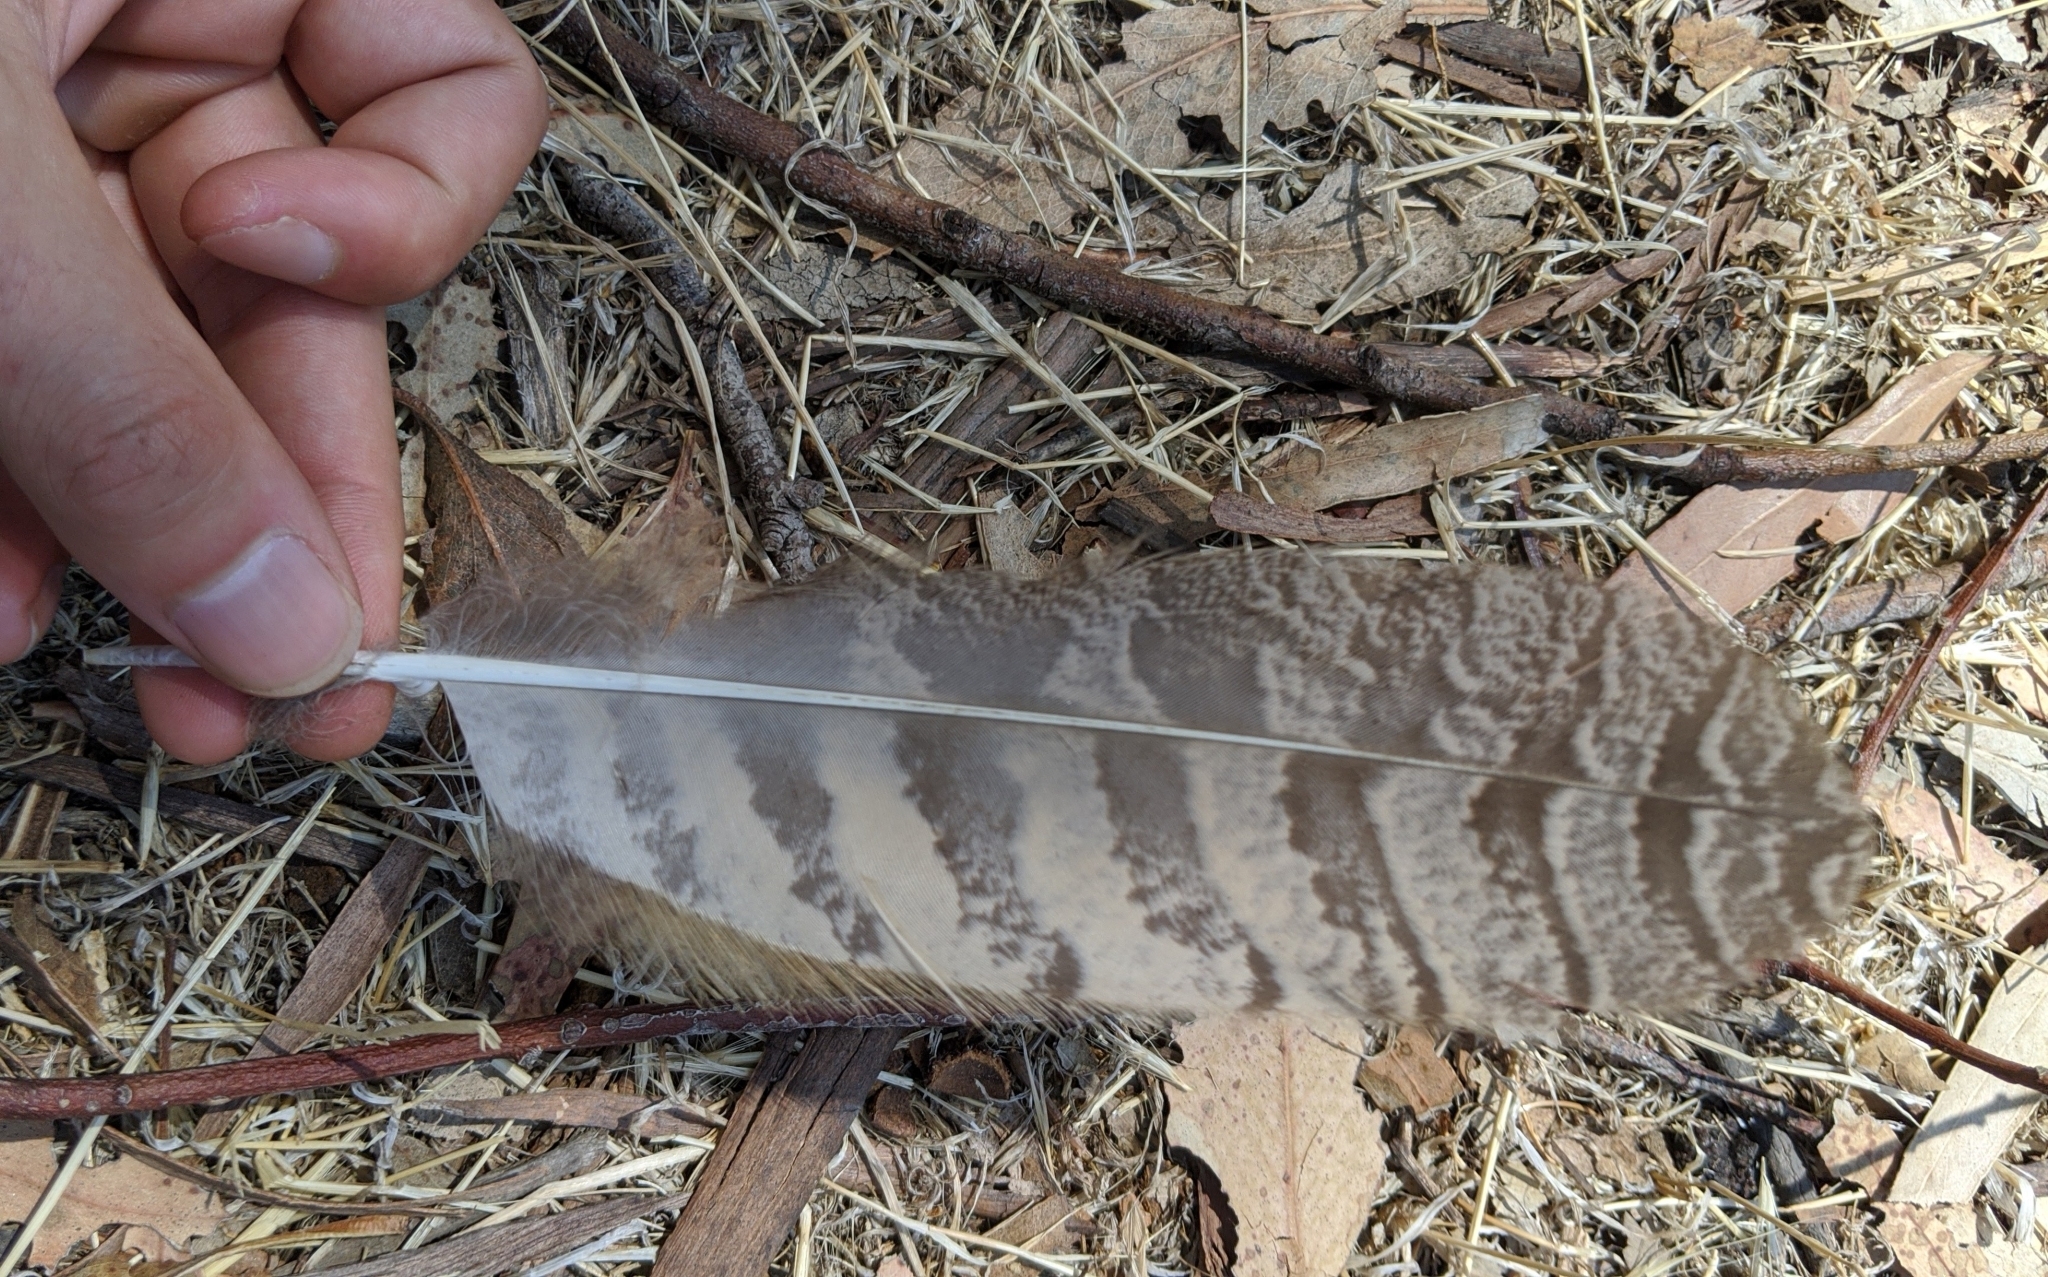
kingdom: Animalia
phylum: Chordata
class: Aves
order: Strigiformes
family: Strigidae
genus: Bubo
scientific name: Bubo virginianus
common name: Great horned owl
